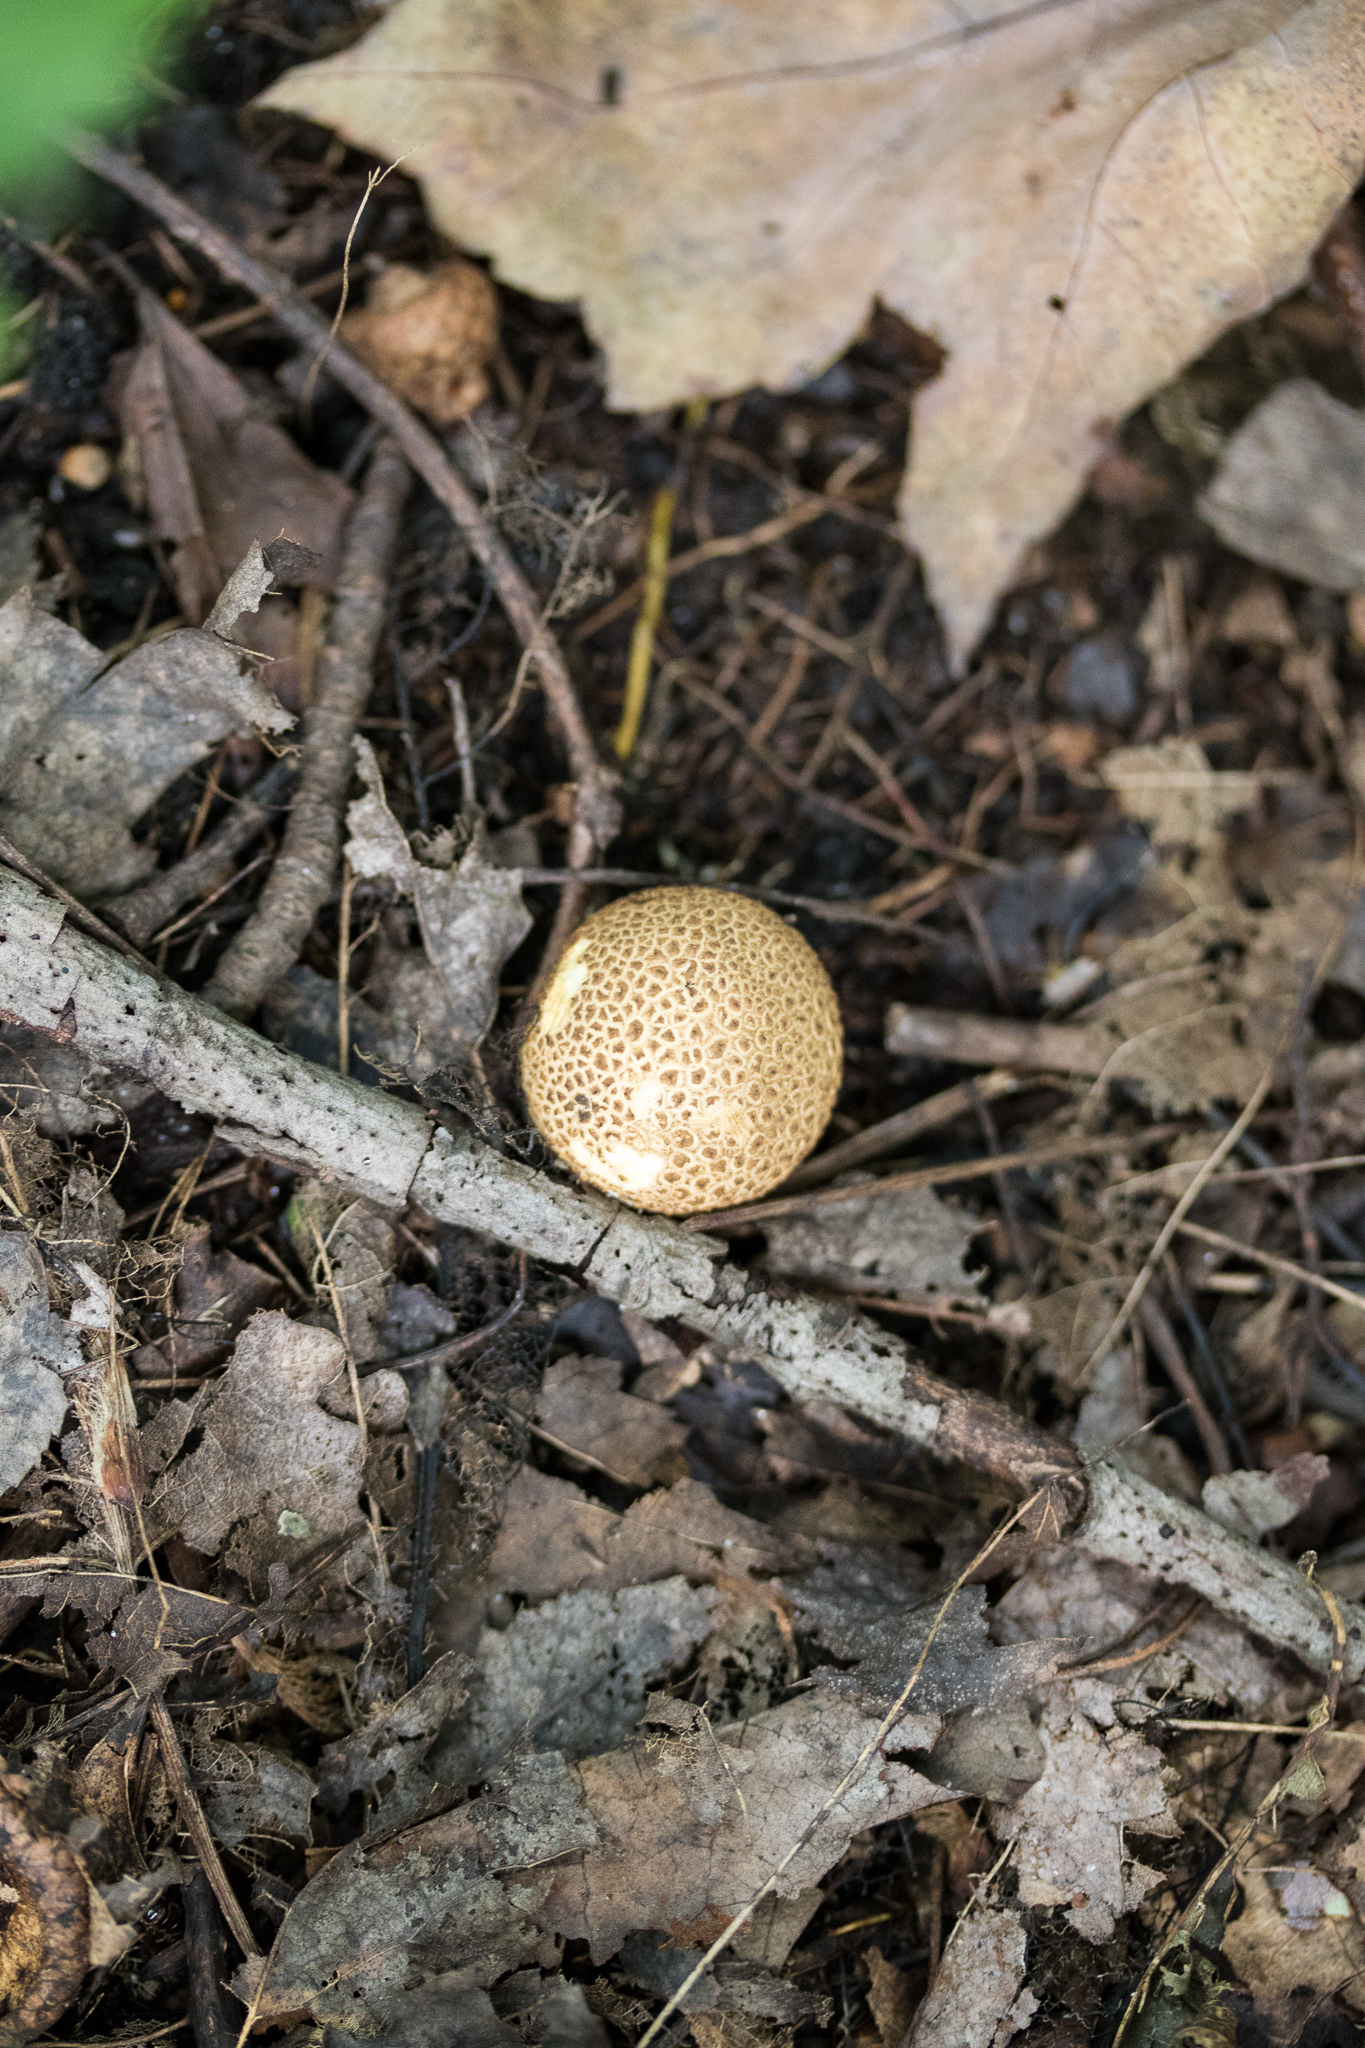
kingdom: Fungi
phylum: Basidiomycota
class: Agaricomycetes
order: Boletales
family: Sclerodermataceae
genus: Scleroderma
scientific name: Scleroderma citrinum
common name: Common earthball
